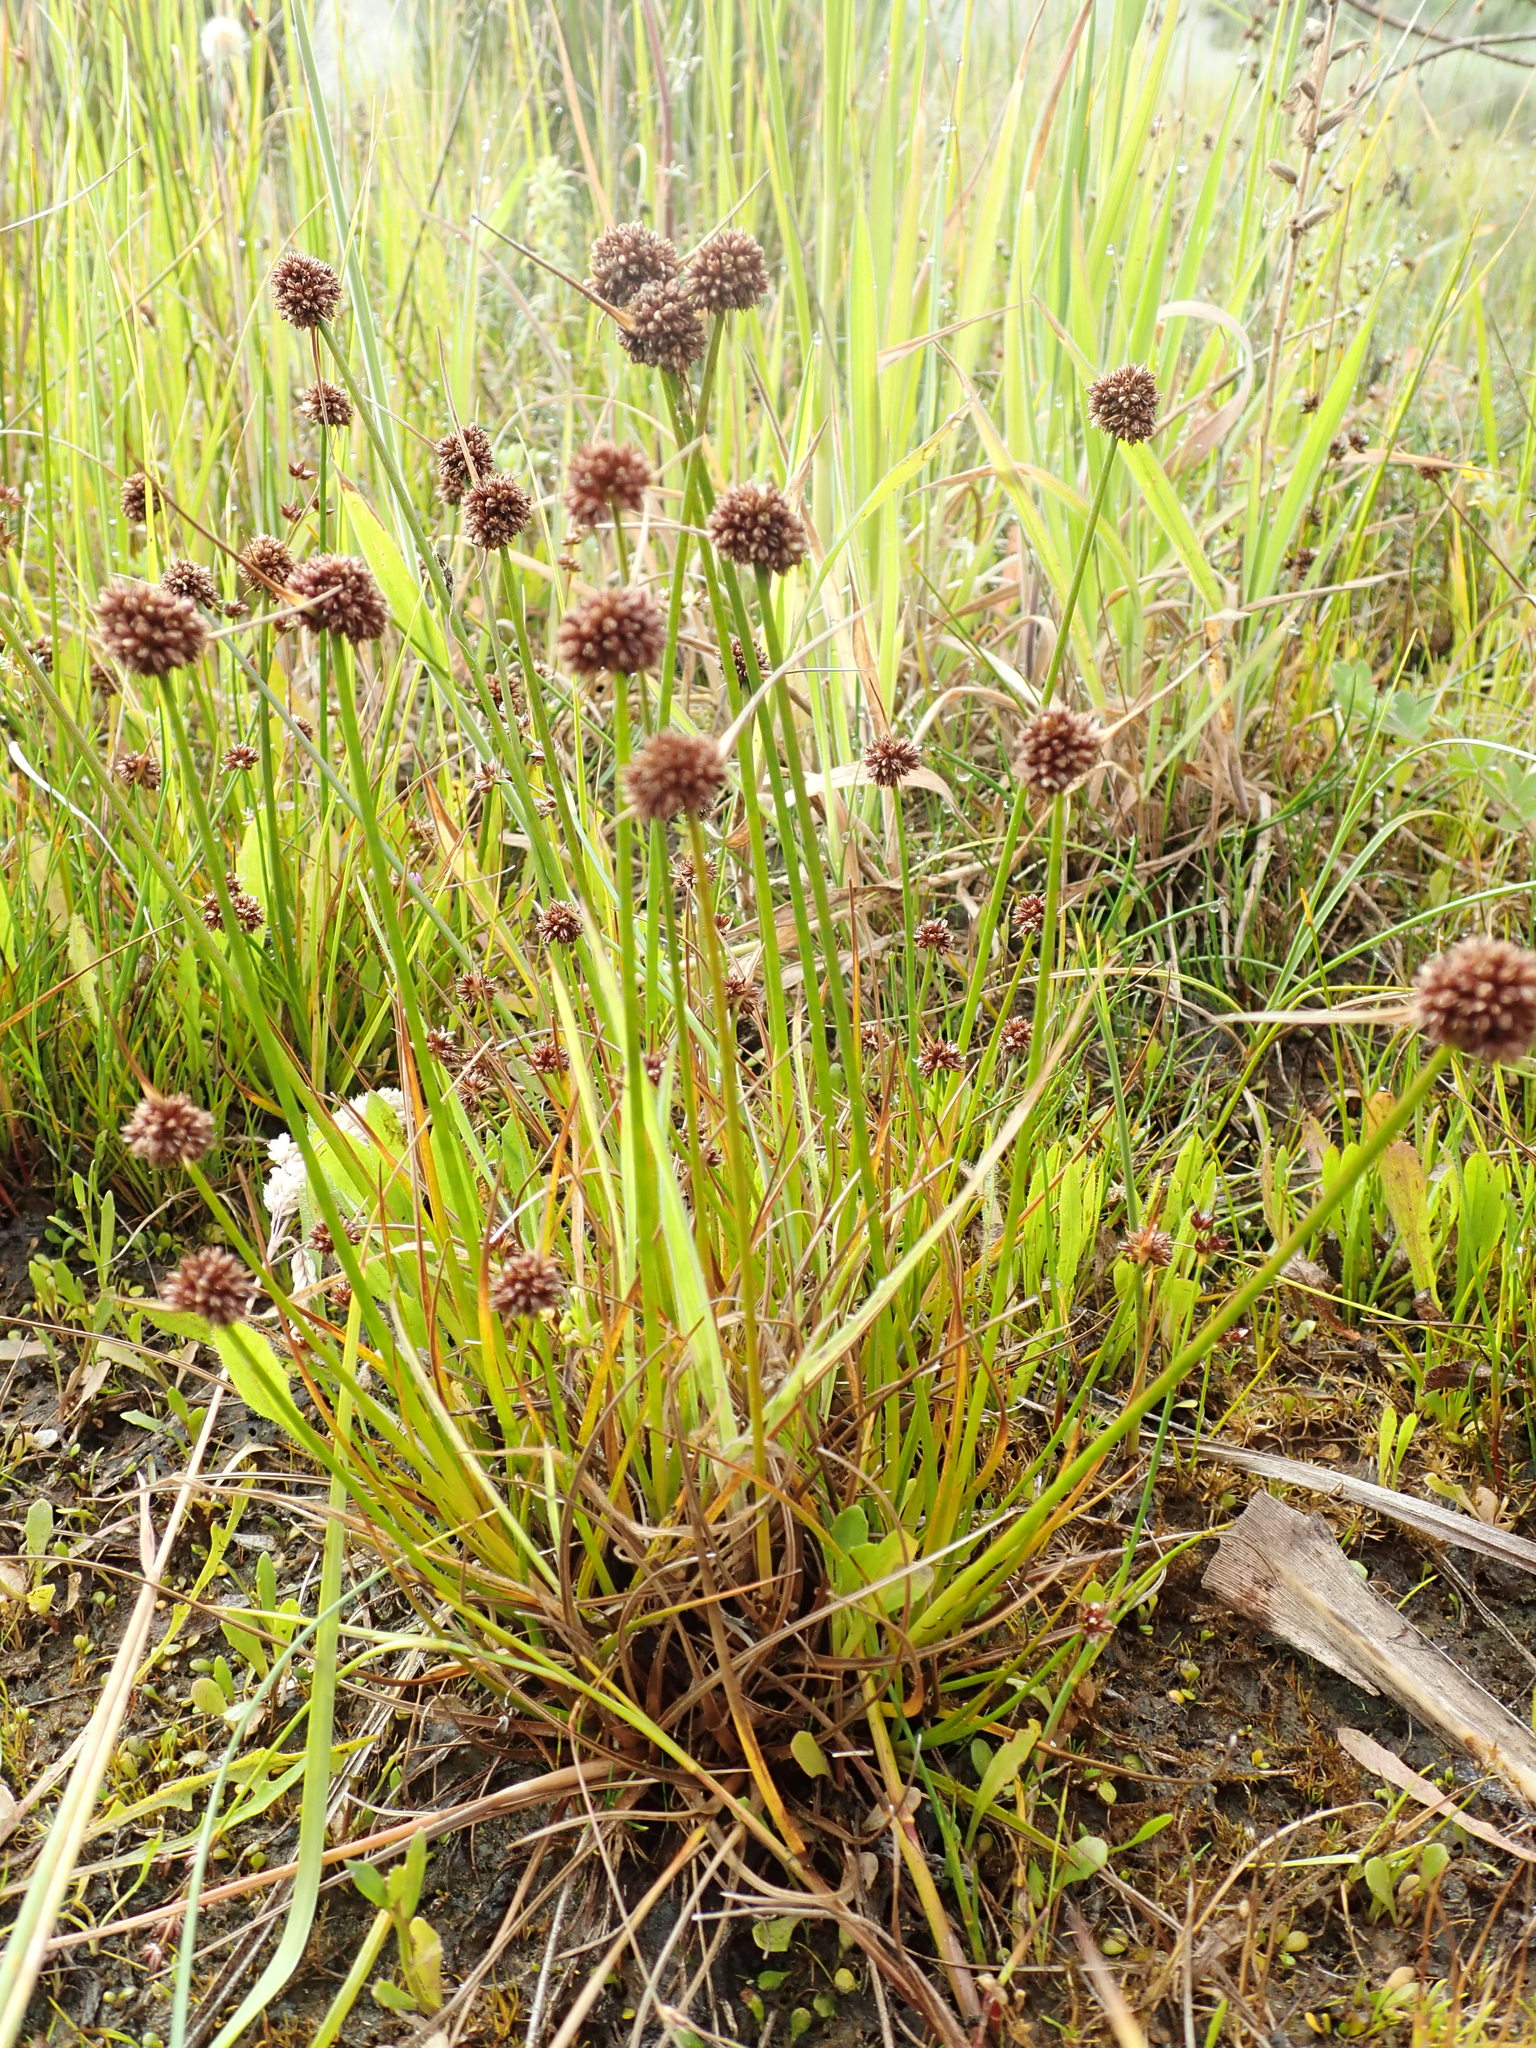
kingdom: Plantae
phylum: Tracheophyta
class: Liliopsida
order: Poales
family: Juncaceae
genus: Juncus
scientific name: Juncus caespiticius
